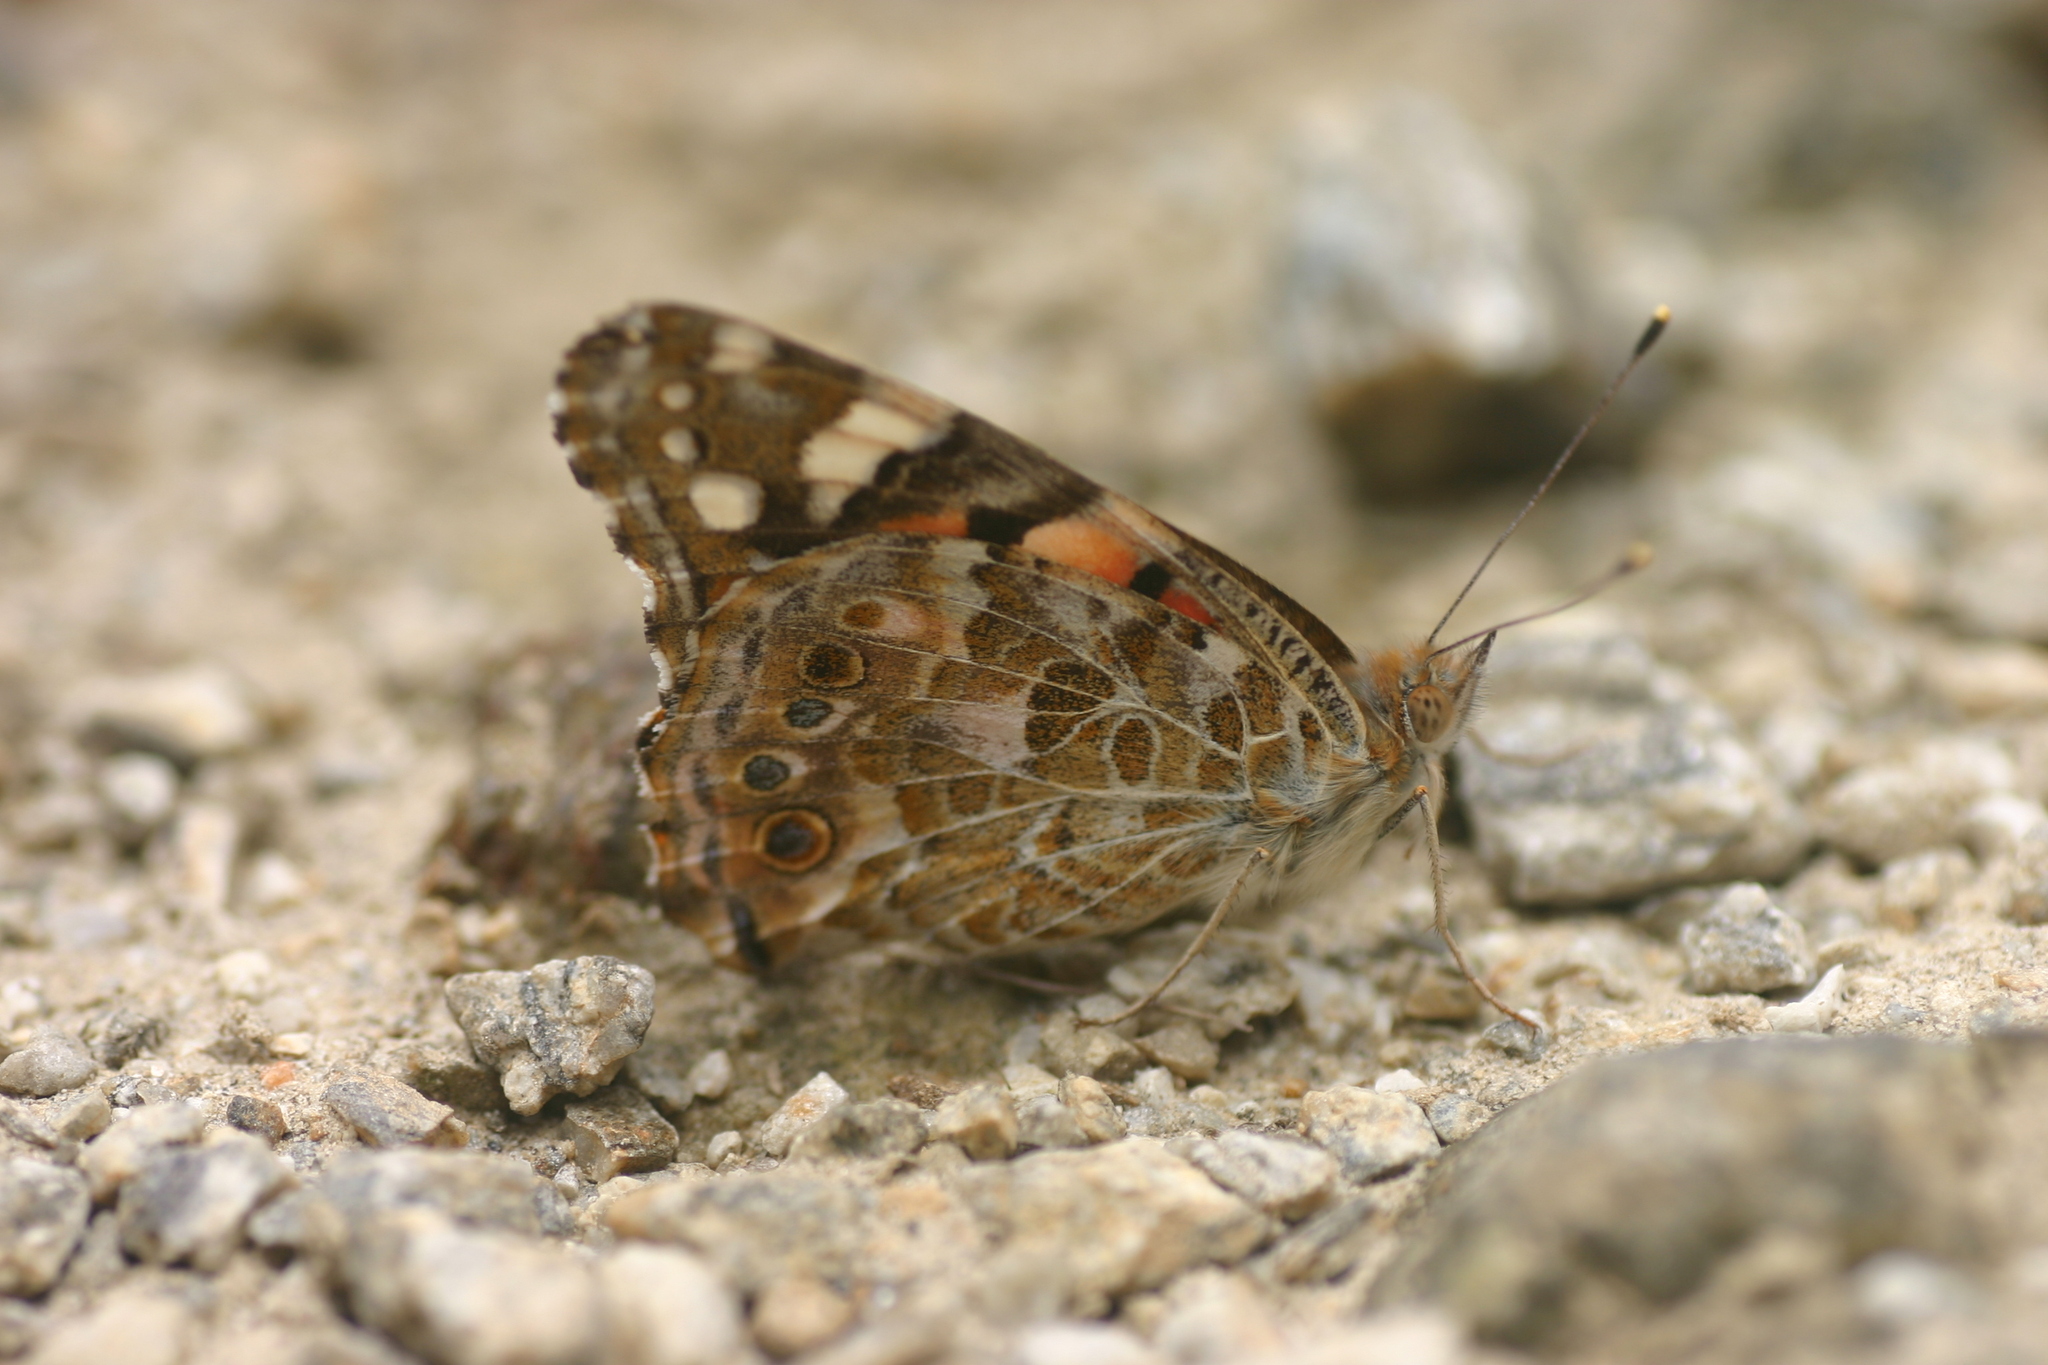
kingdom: Animalia
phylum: Arthropoda
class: Insecta
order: Lepidoptera
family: Nymphalidae
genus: Vanessa
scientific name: Vanessa cardui
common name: Painted lady
